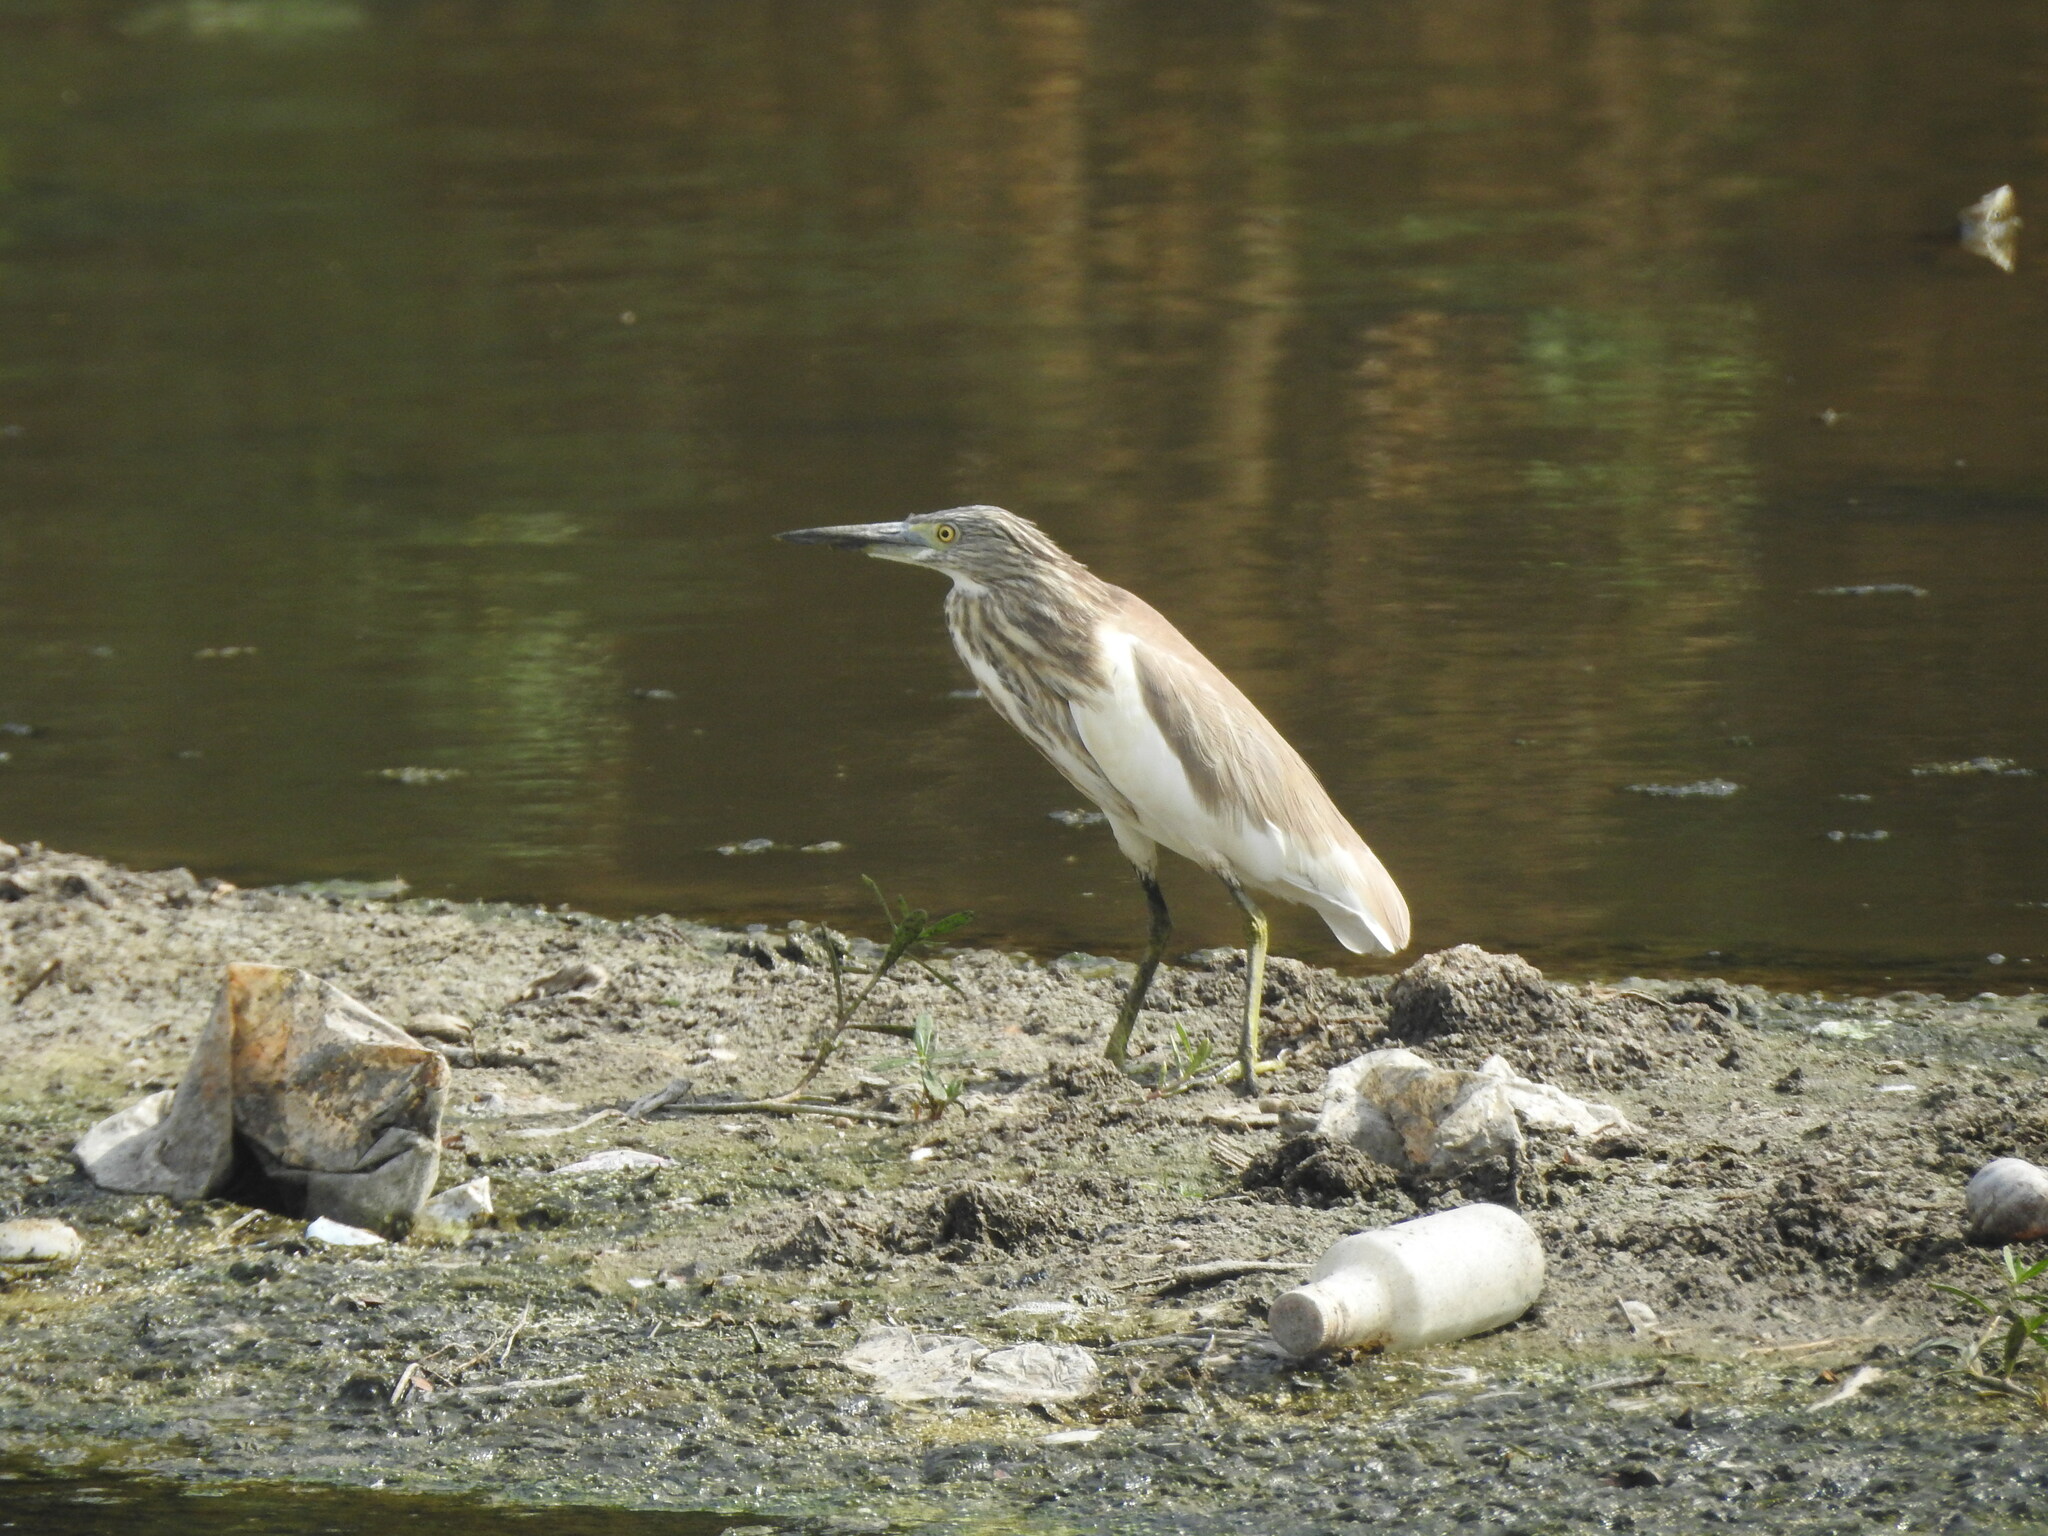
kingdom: Animalia
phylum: Chordata
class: Aves
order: Pelecaniformes
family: Ardeidae
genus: Ardeola
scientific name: Ardeola grayii
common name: Indian pond heron
